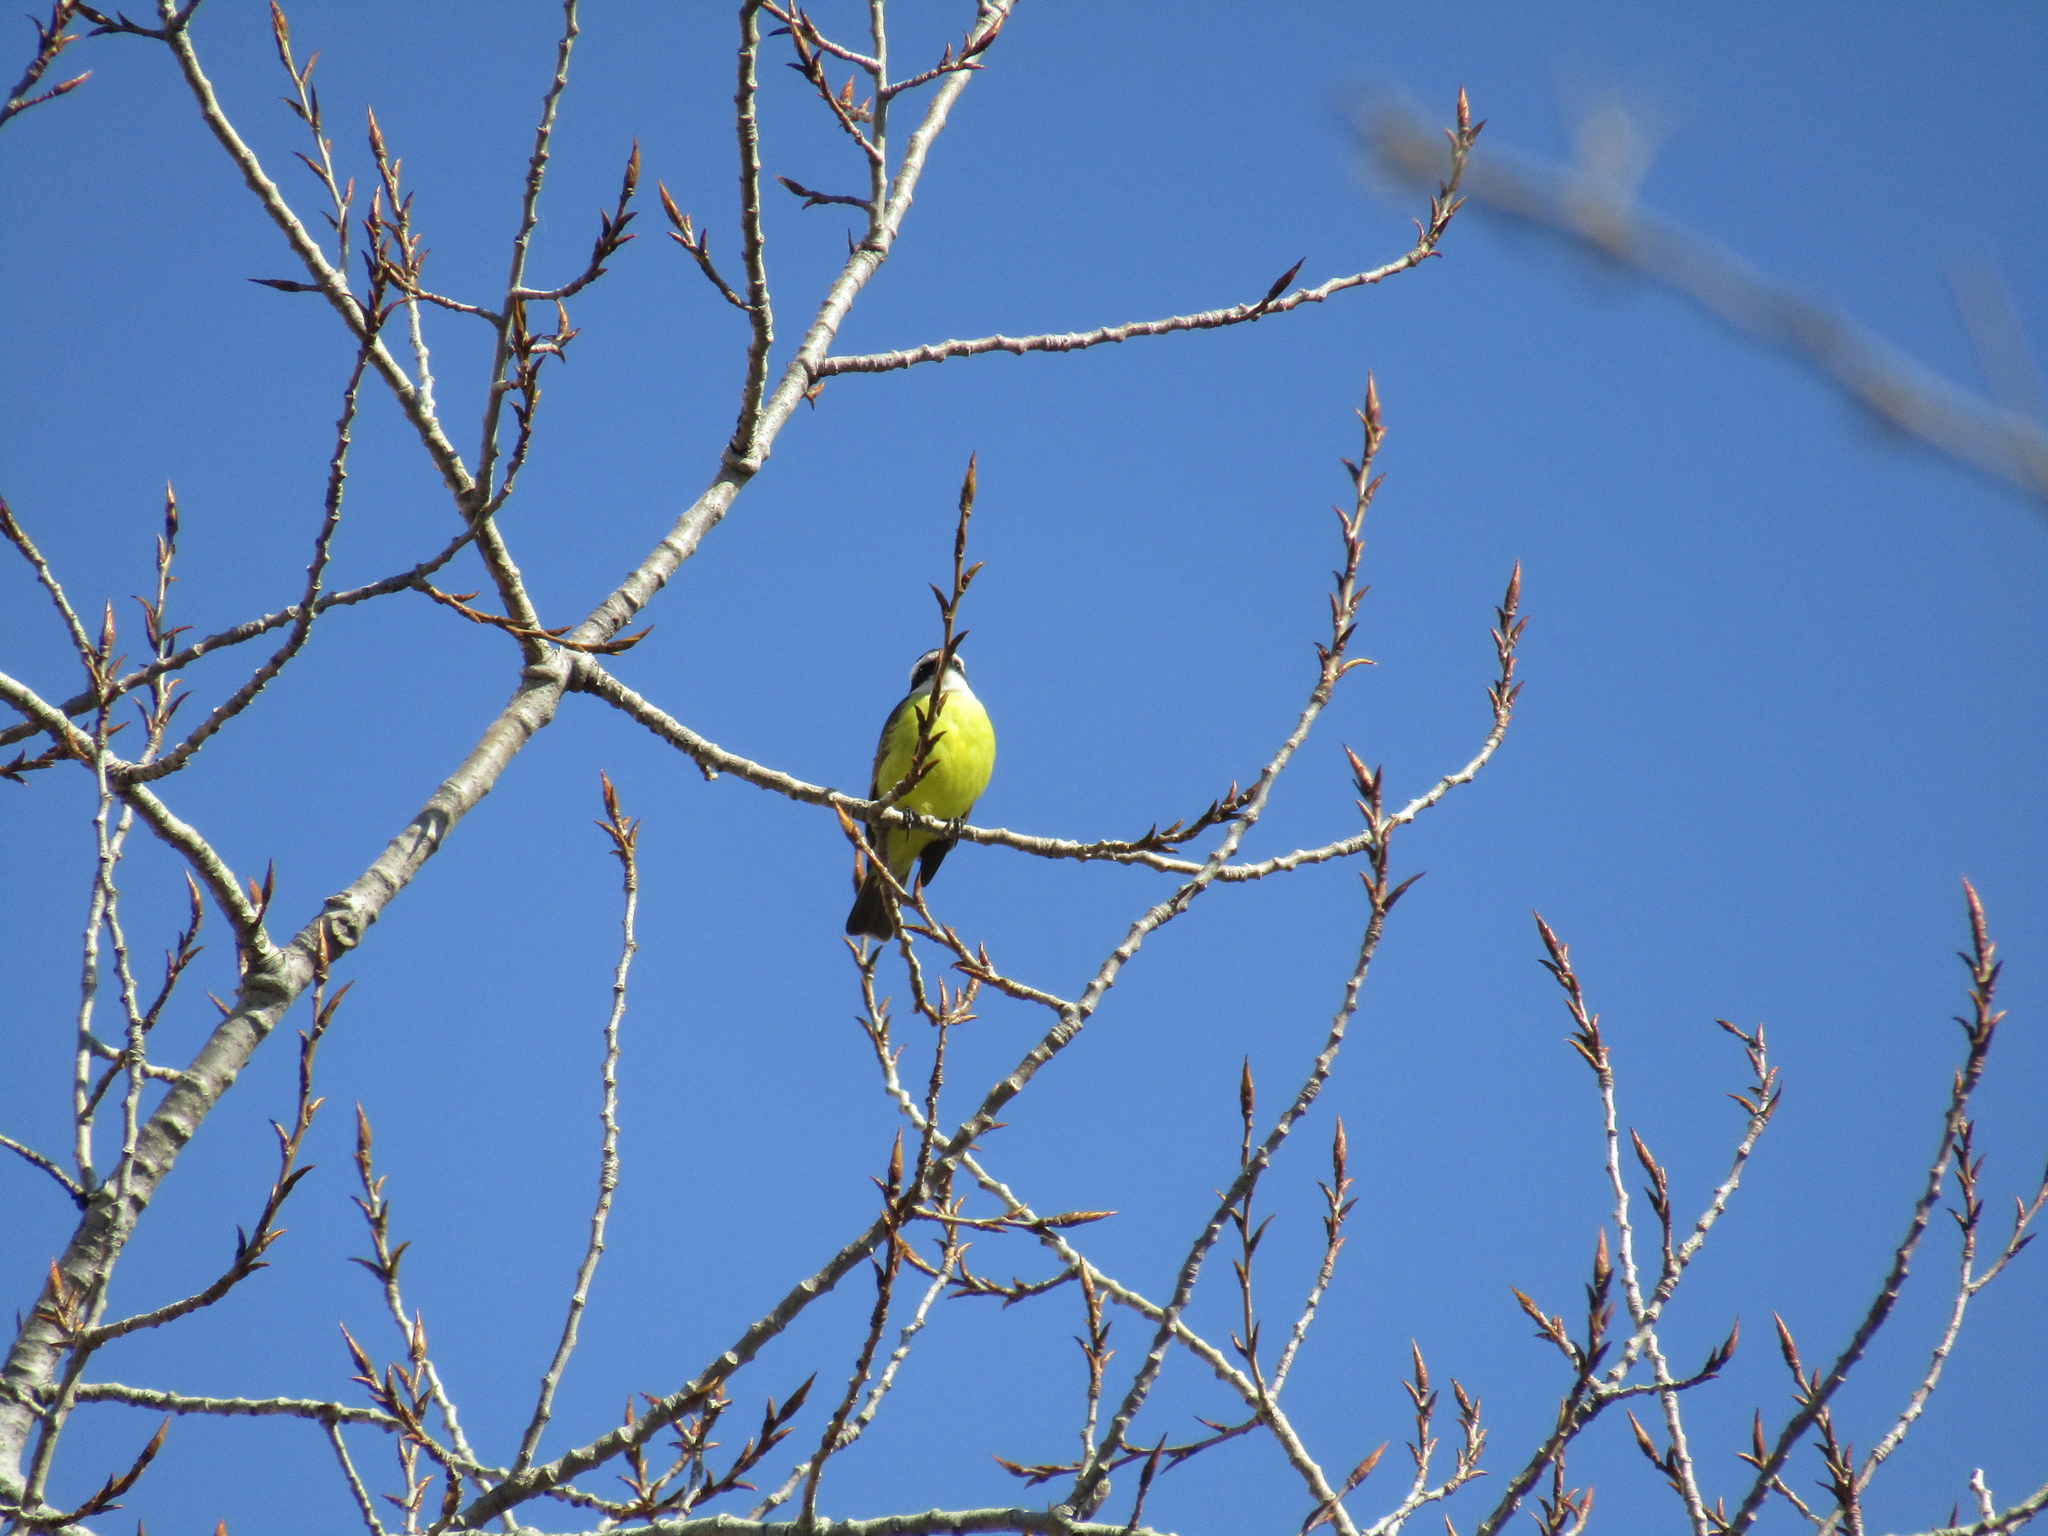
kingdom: Animalia
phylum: Chordata
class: Aves
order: Passeriformes
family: Tyrannidae
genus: Pitangus
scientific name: Pitangus sulphuratus
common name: Great kiskadee
